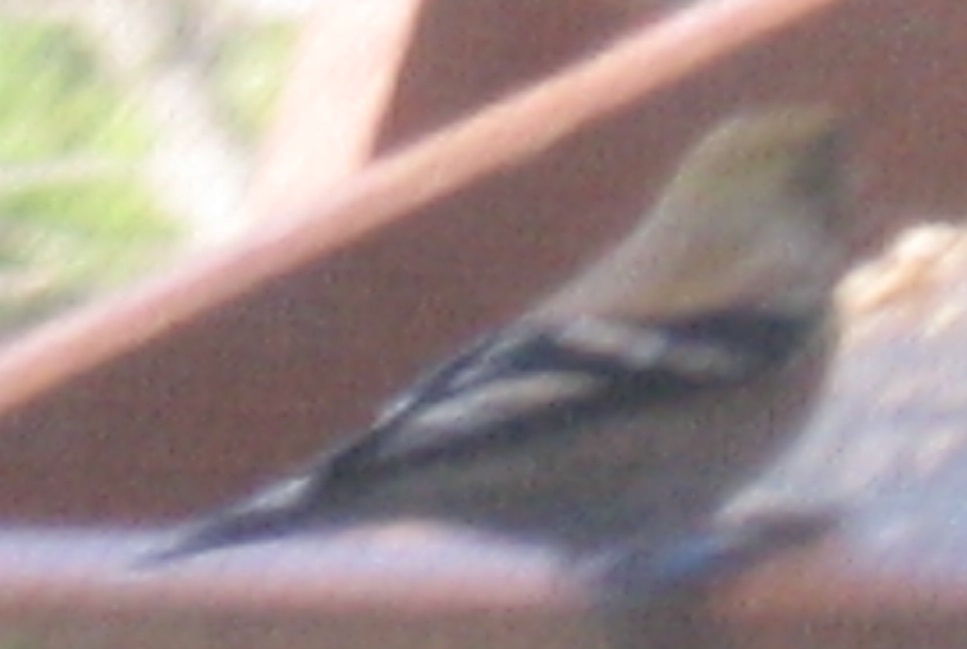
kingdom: Animalia
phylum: Chordata
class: Aves
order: Passeriformes
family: Fringillidae
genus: Spinus
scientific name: Spinus tristis
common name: American goldfinch
